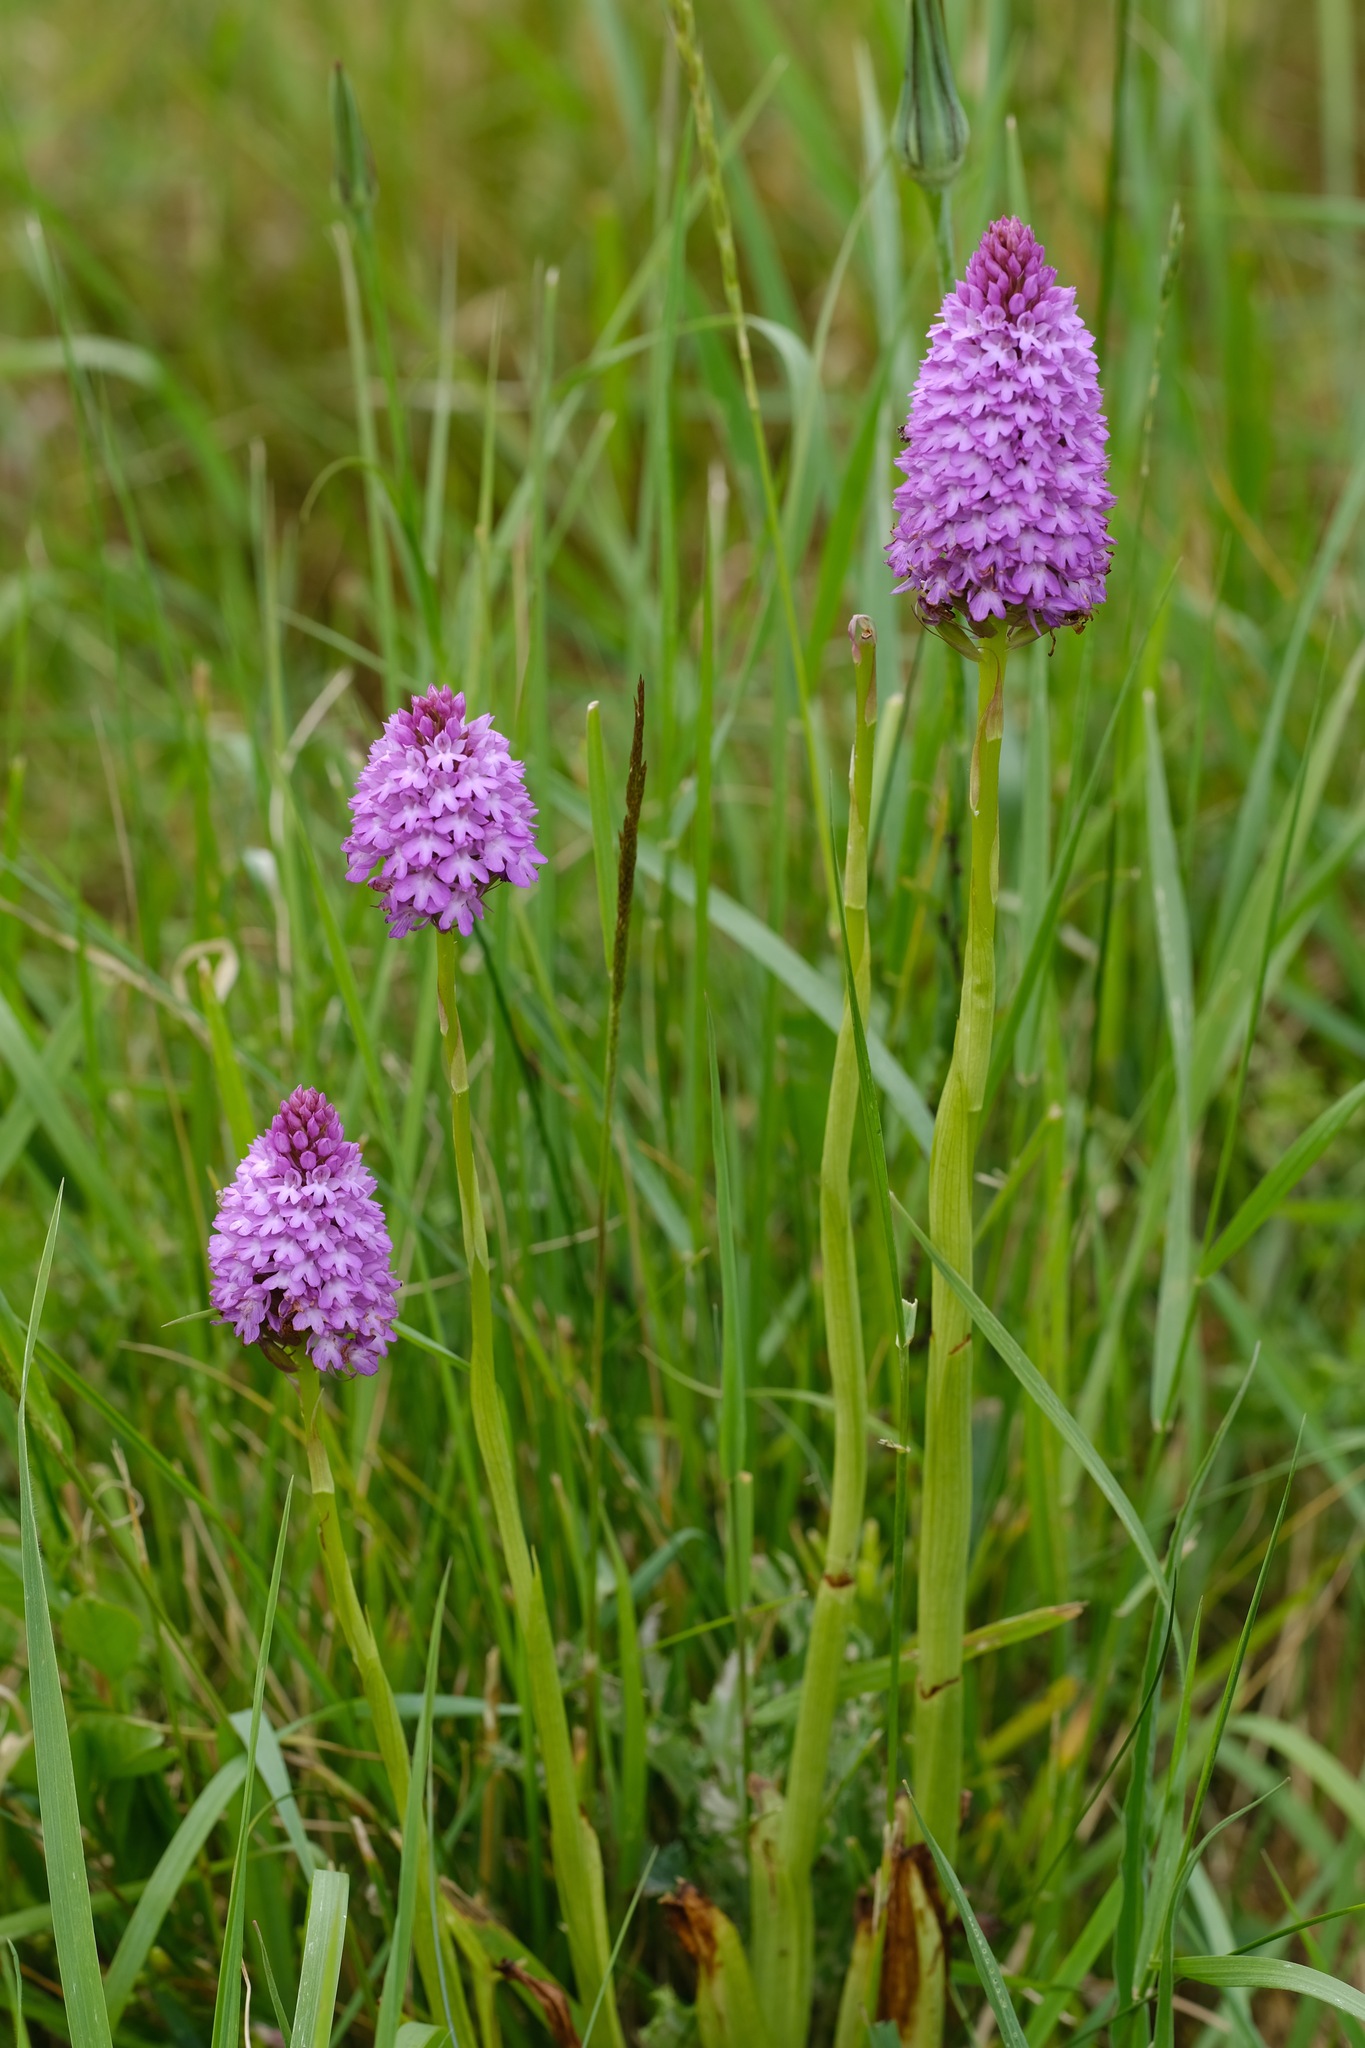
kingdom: Plantae
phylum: Tracheophyta
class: Liliopsida
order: Asparagales
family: Orchidaceae
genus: Anacamptis
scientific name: Anacamptis pyramidalis
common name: Pyramidal orchid
